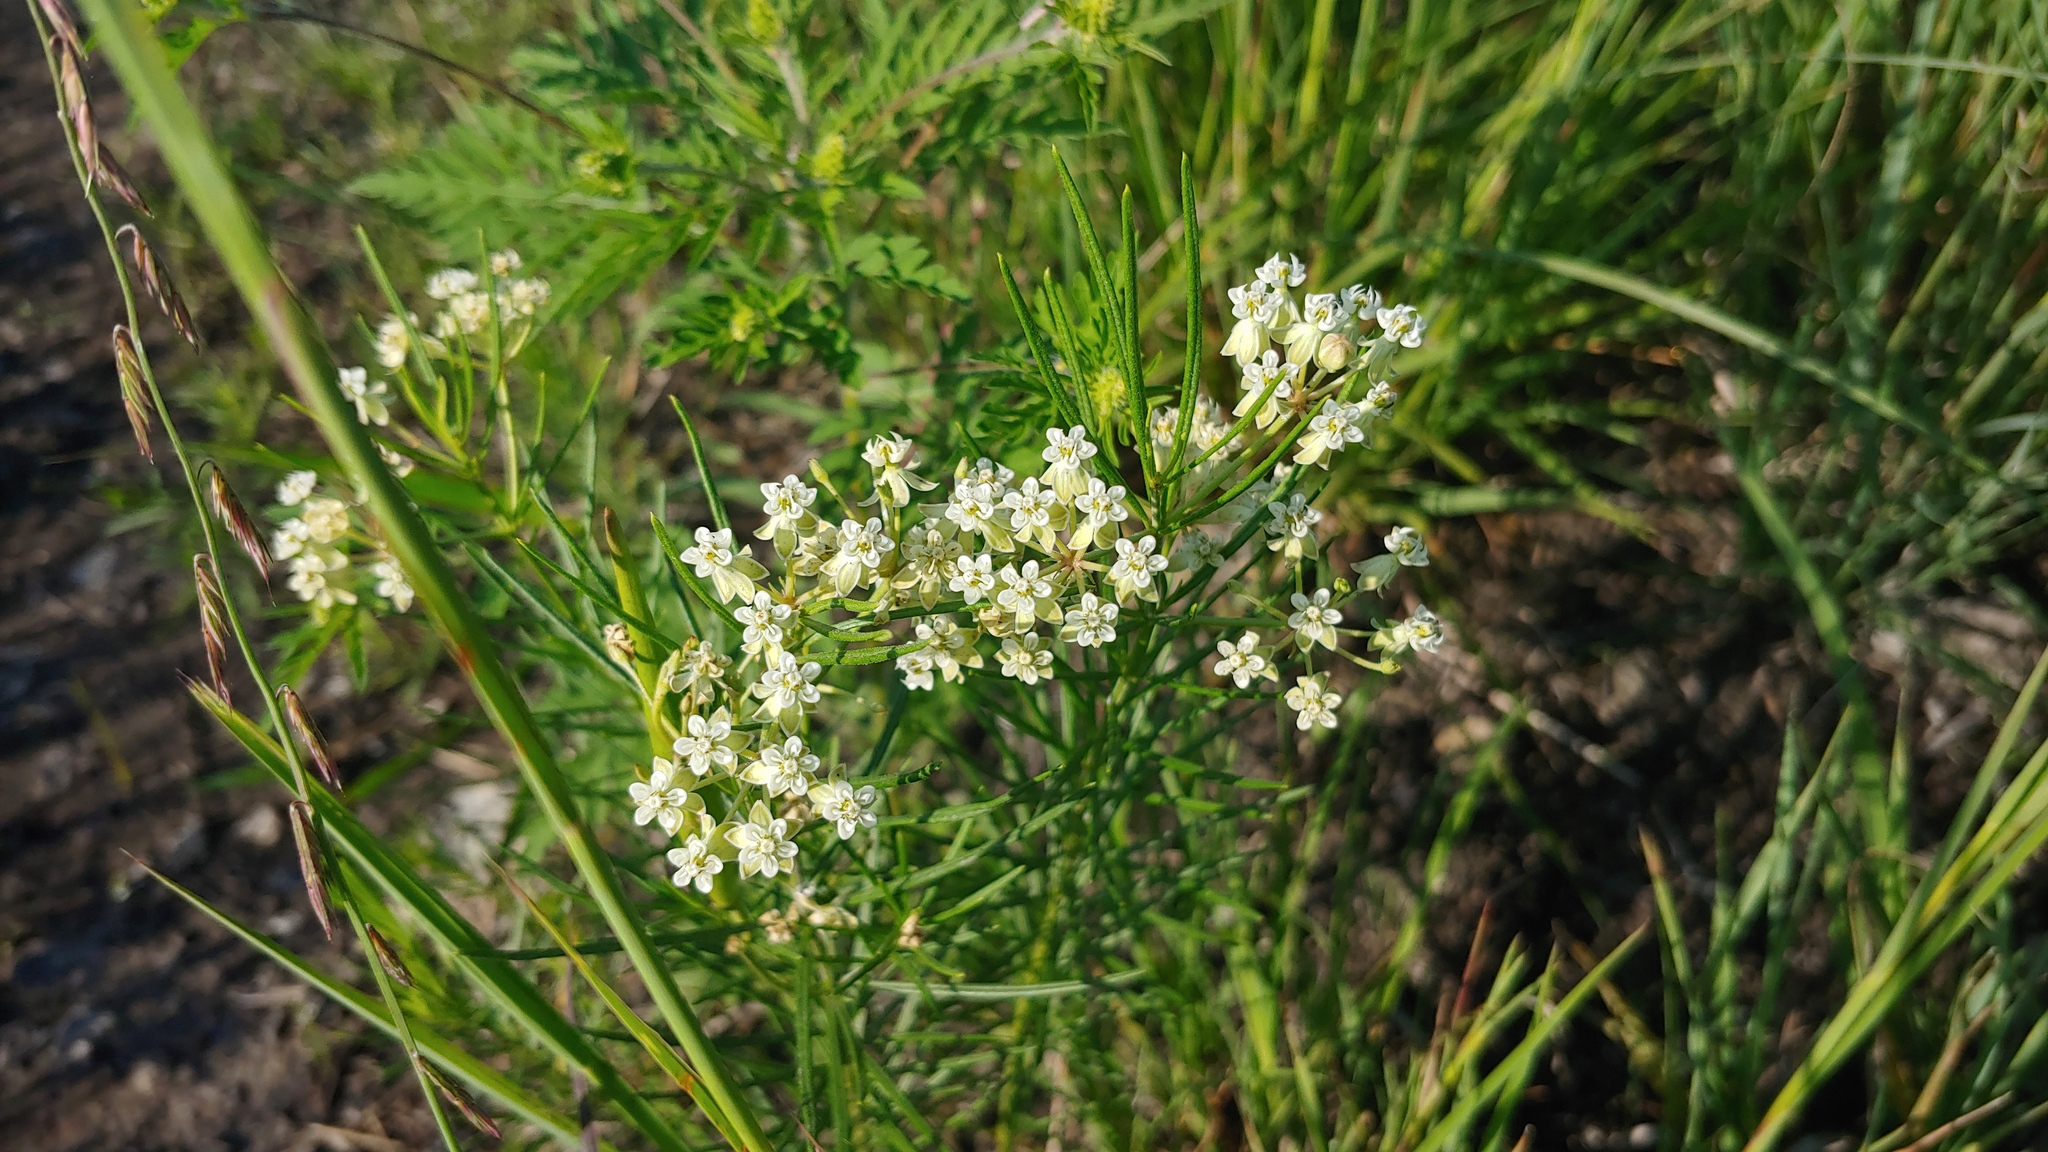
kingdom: Plantae
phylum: Tracheophyta
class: Magnoliopsida
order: Gentianales
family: Apocynaceae
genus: Asclepias
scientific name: Asclepias verticillata
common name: Eastern whorled milkweed
